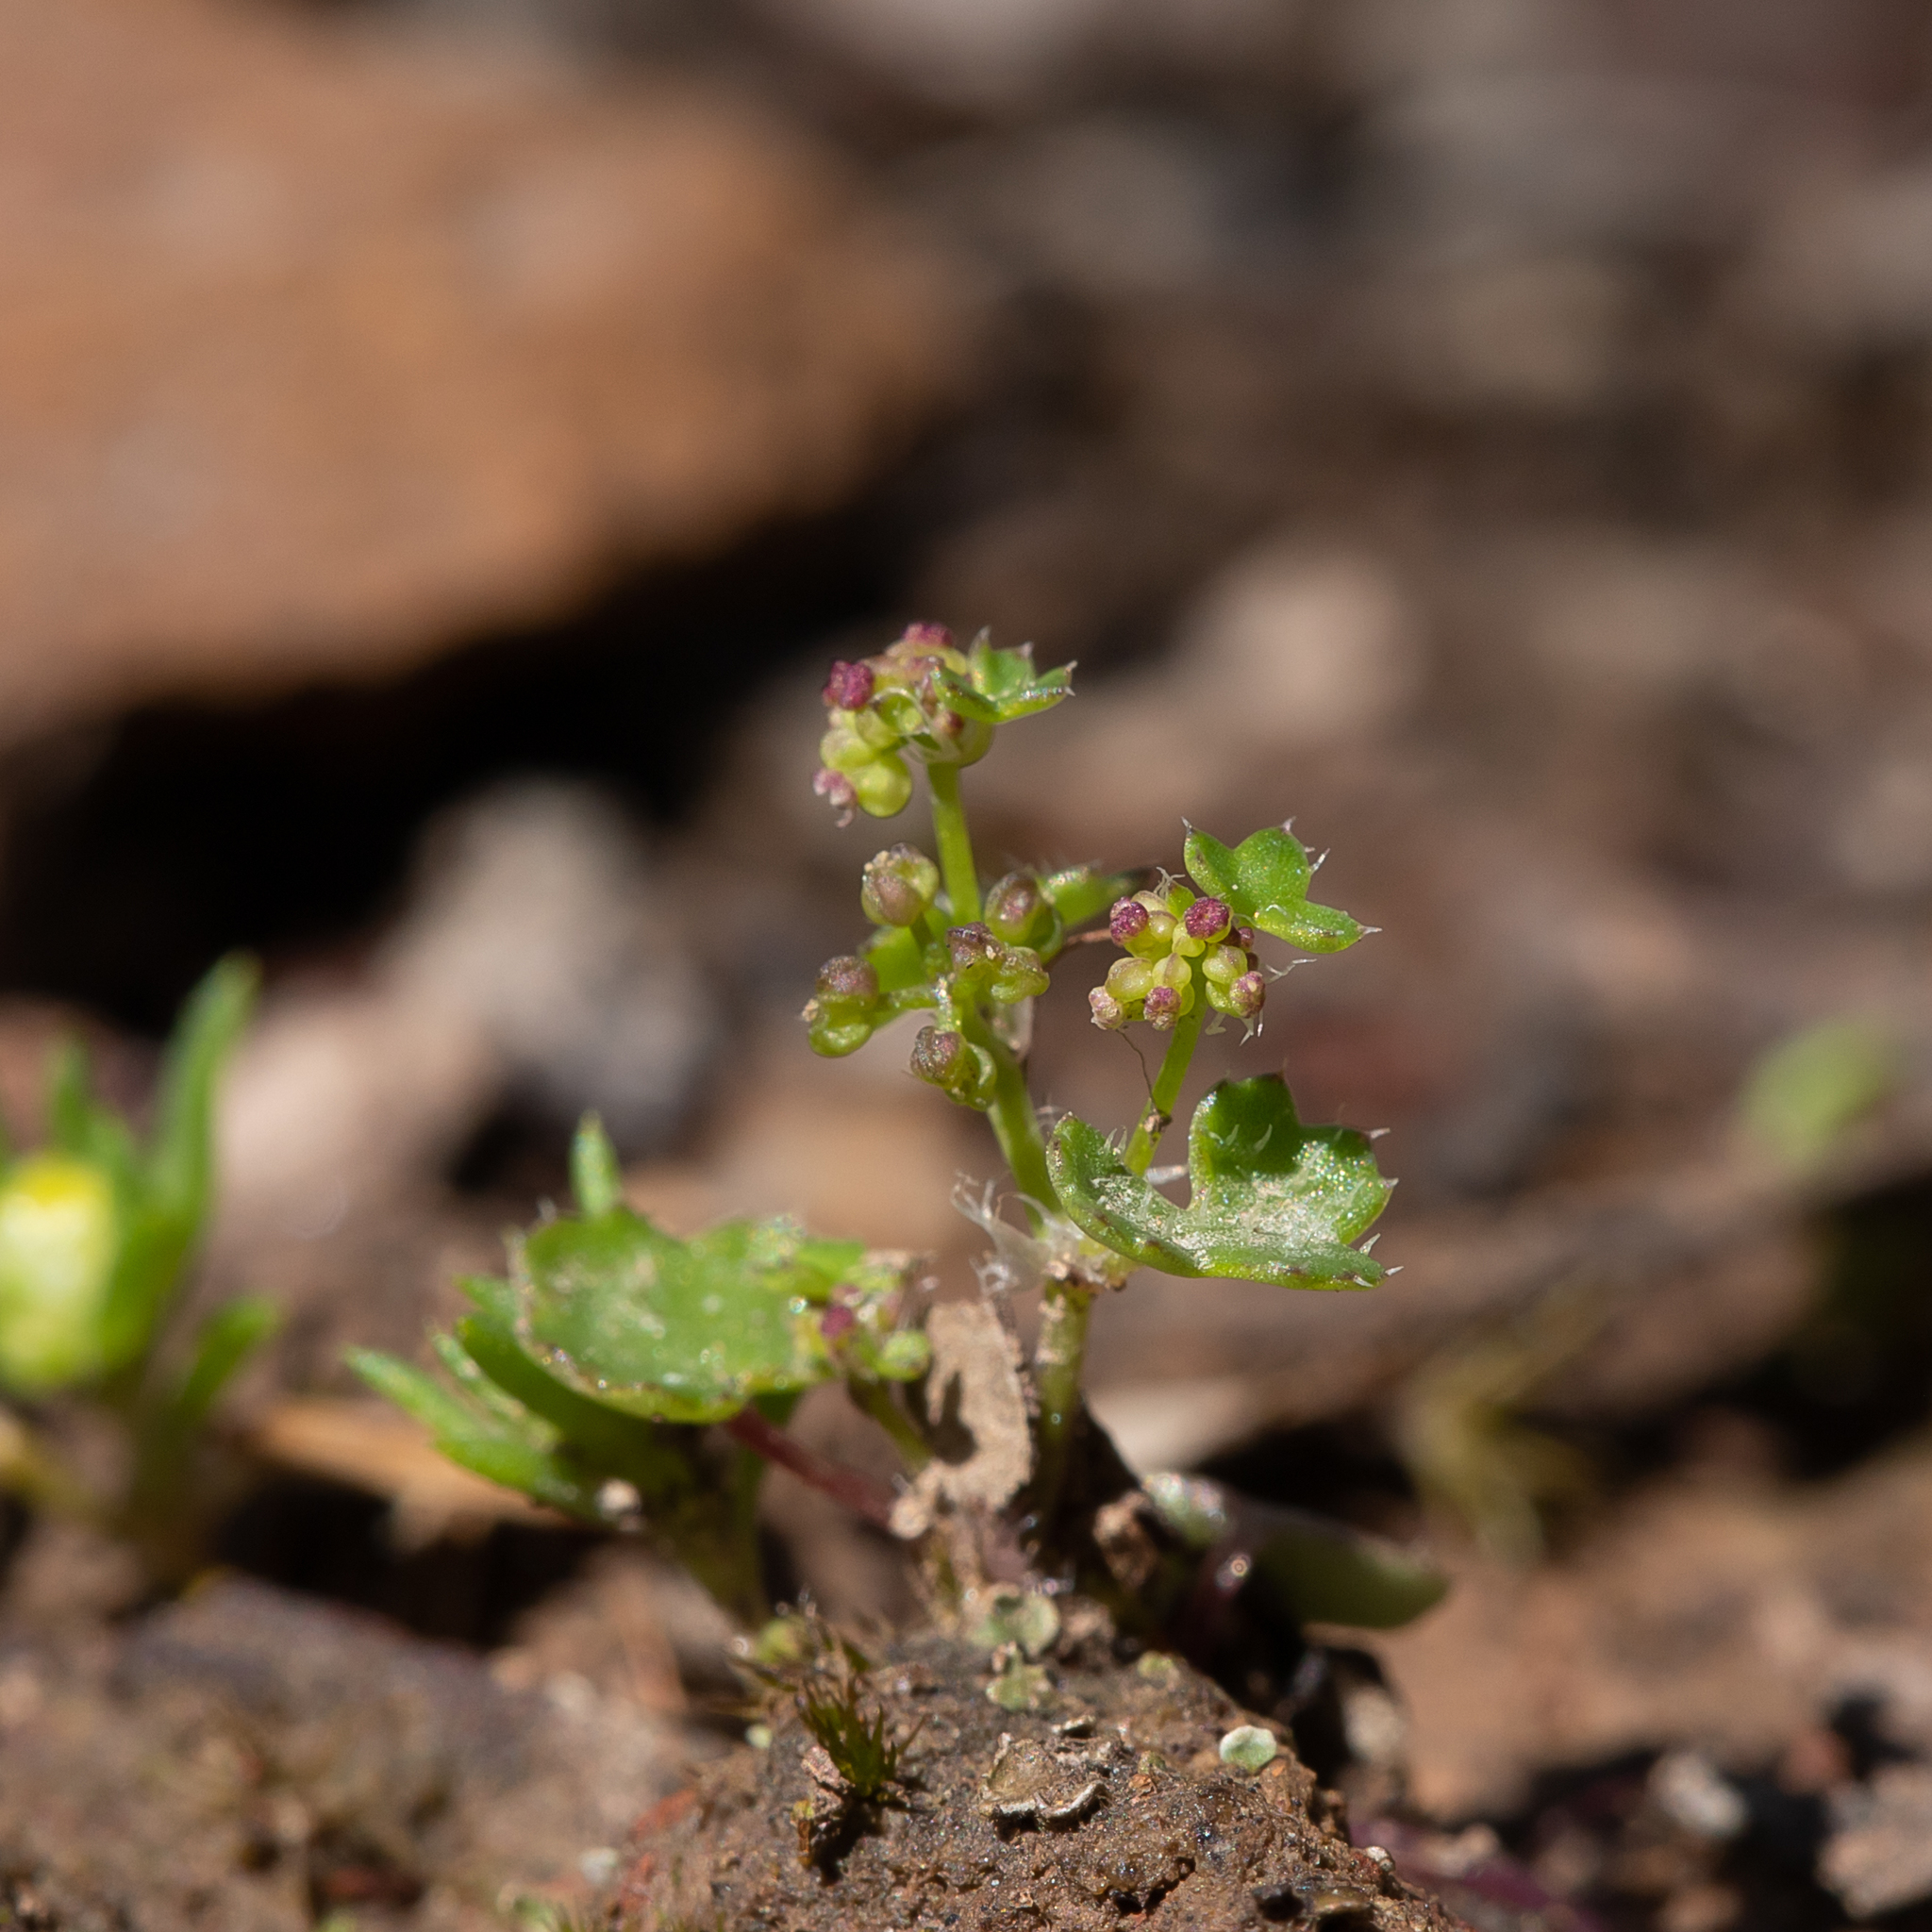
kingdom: Plantae
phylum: Tracheophyta
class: Magnoliopsida
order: Apiales
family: Araliaceae
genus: Hydrocotyle
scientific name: Hydrocotyle callicarpa
